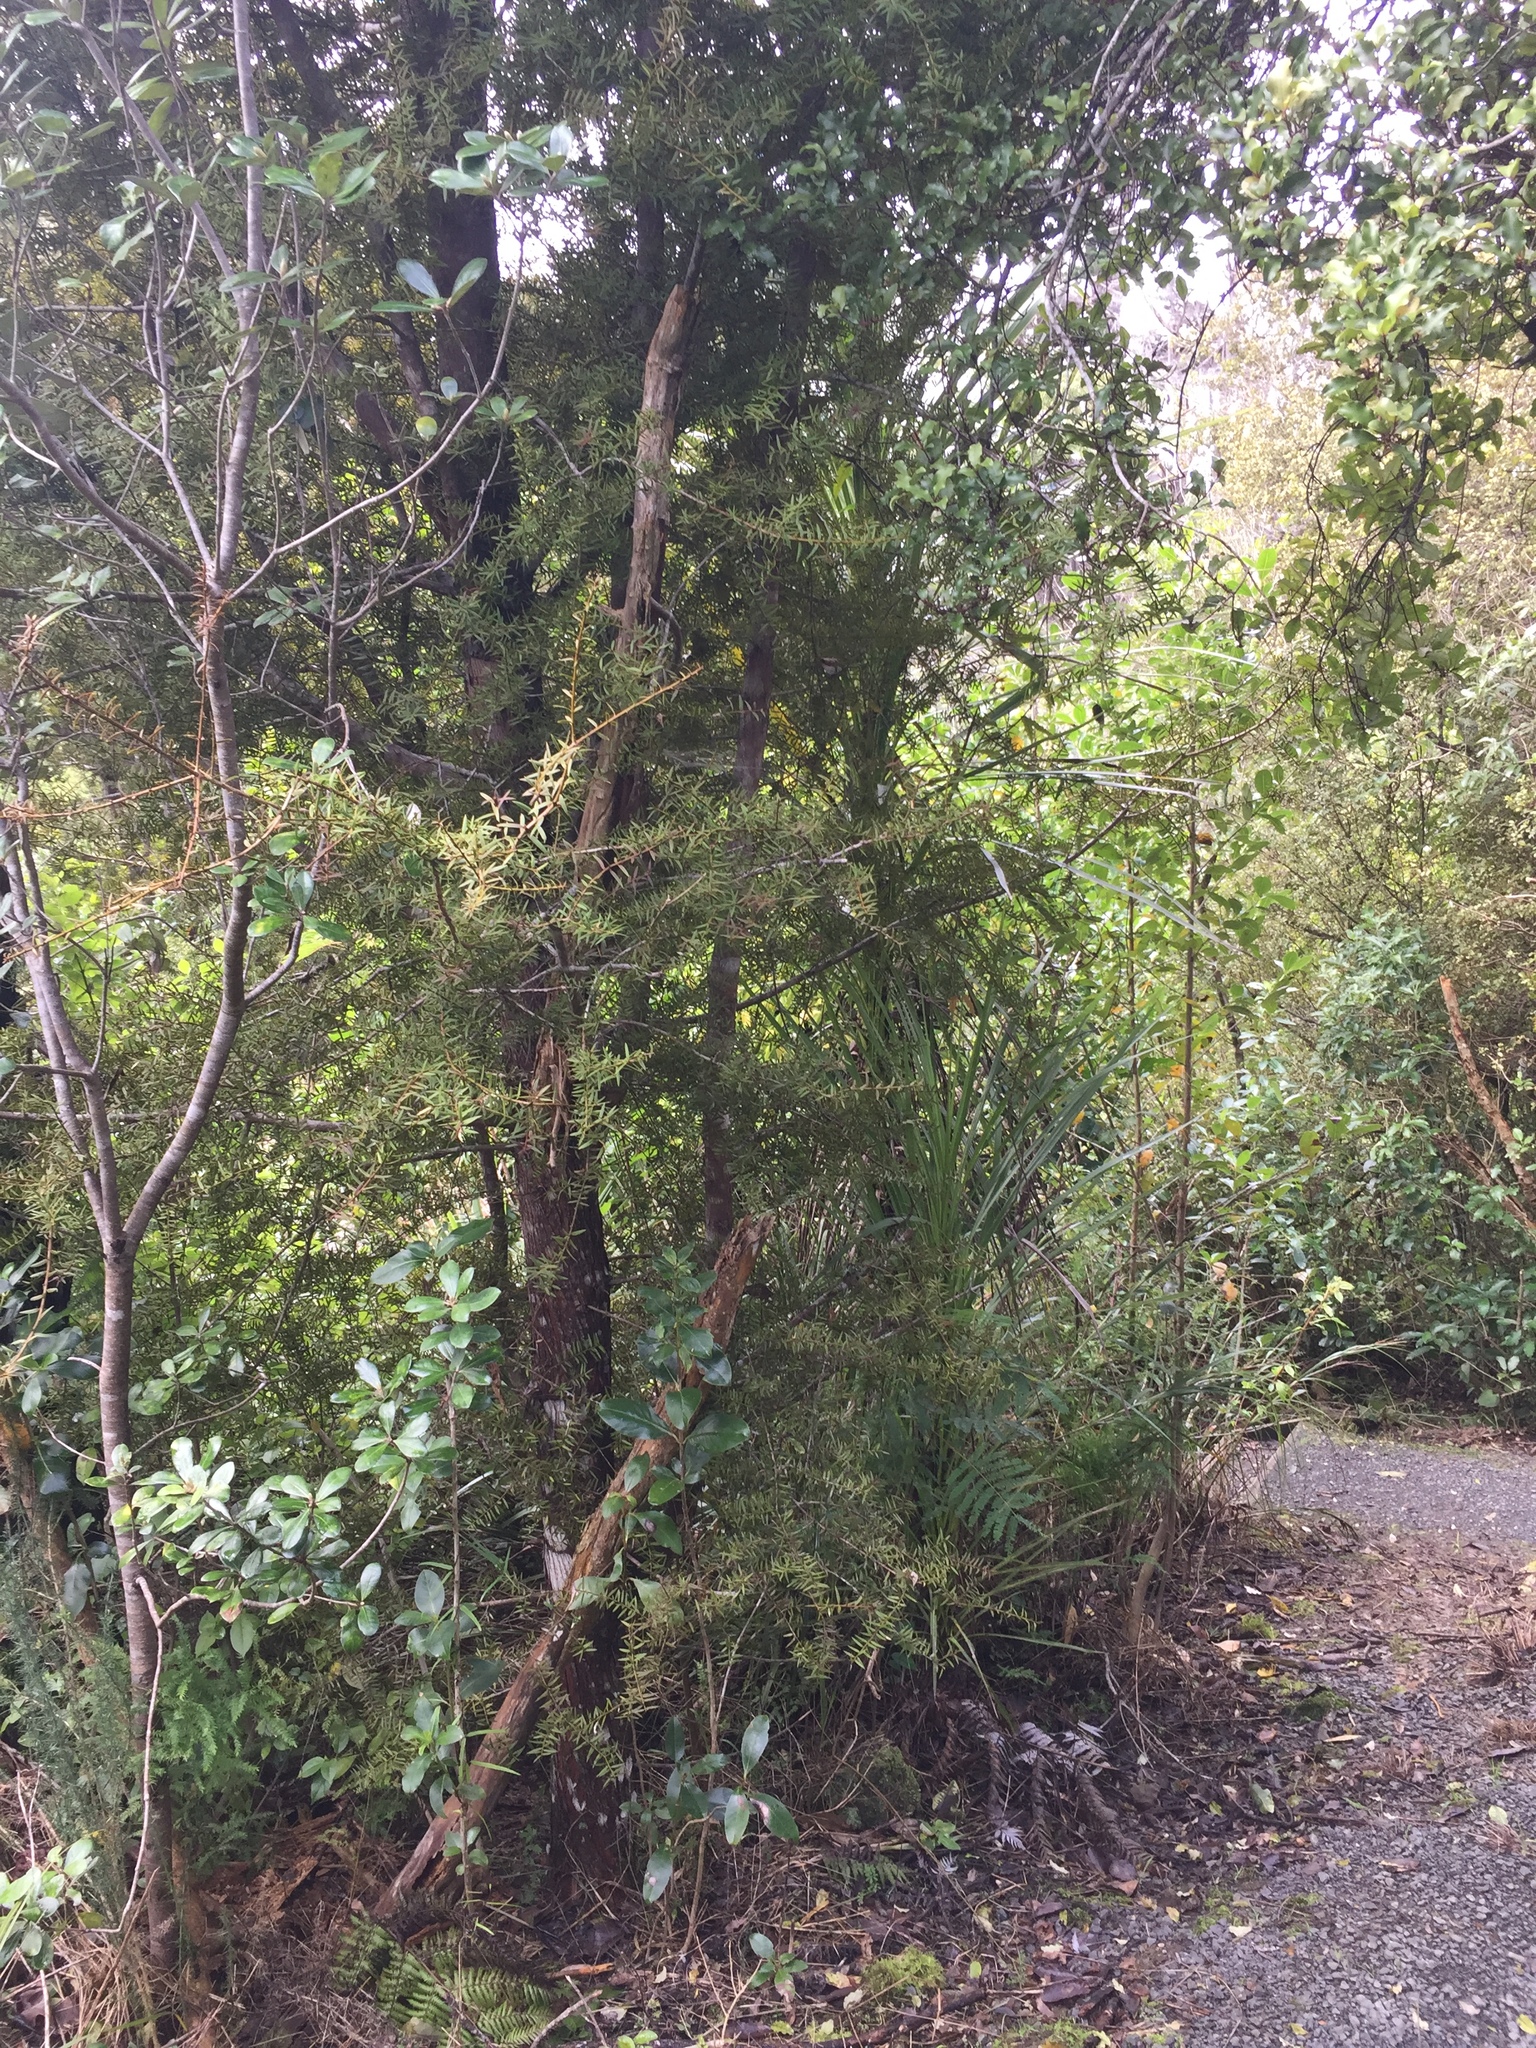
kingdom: Fungi
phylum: Ascomycota
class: Arthoniomycetes
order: Arthoniales
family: Roccellaceae
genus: Enterographa
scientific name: Enterographa bella
